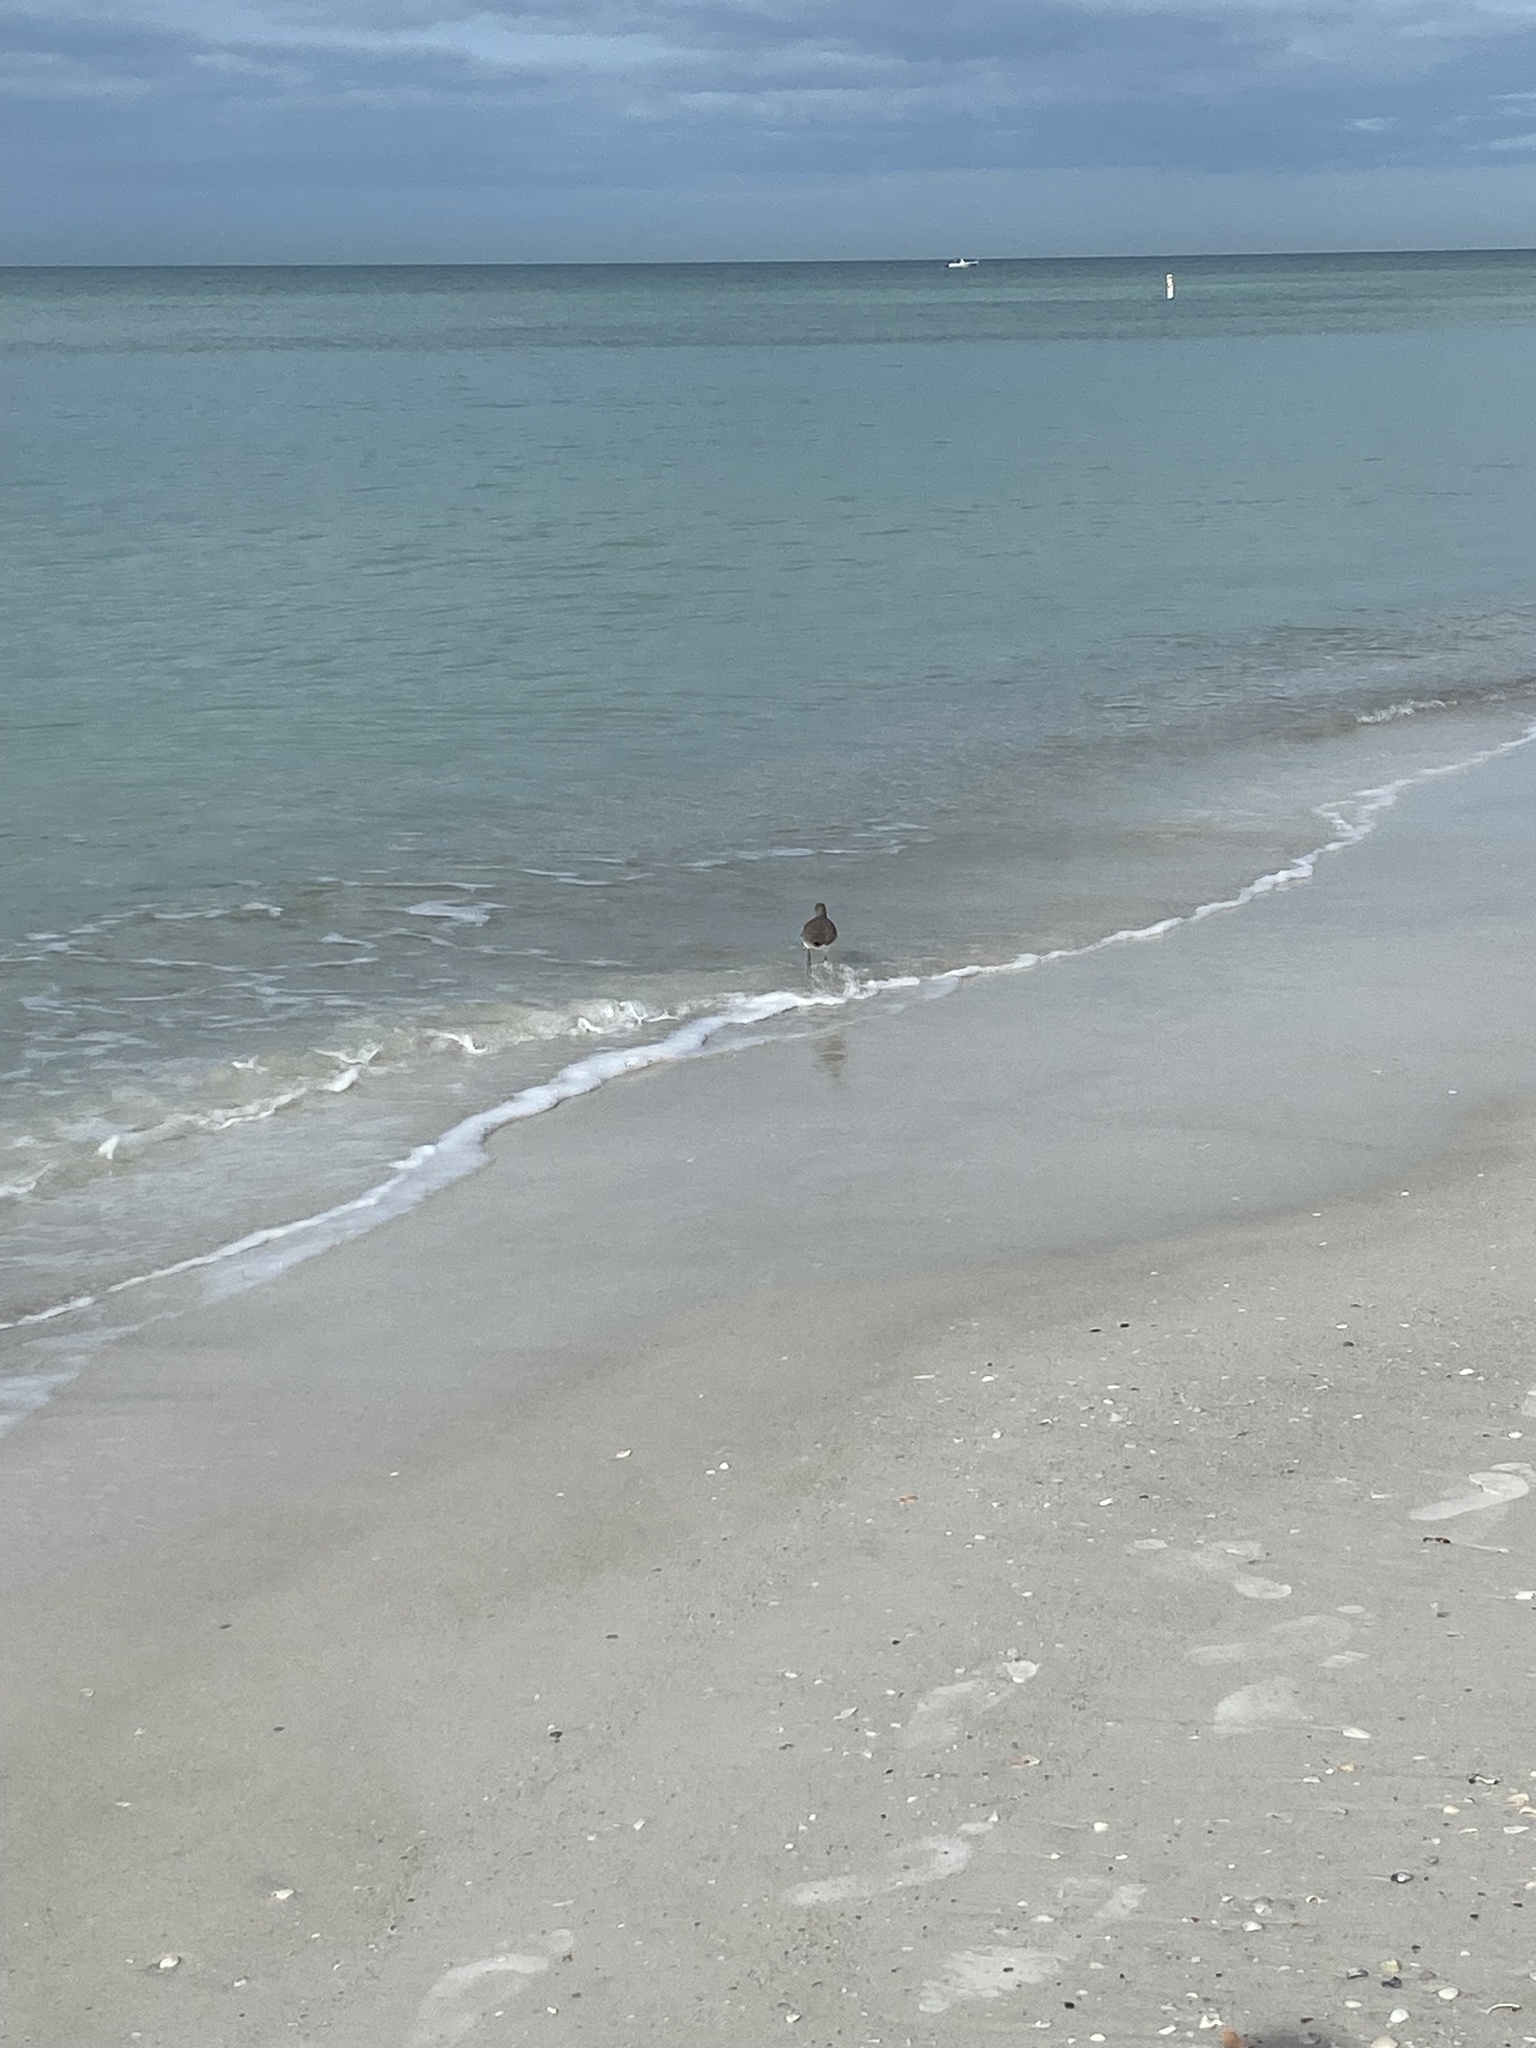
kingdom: Animalia
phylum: Chordata
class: Aves
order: Charadriiformes
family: Scolopacidae
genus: Tringa
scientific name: Tringa semipalmata
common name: Willet
